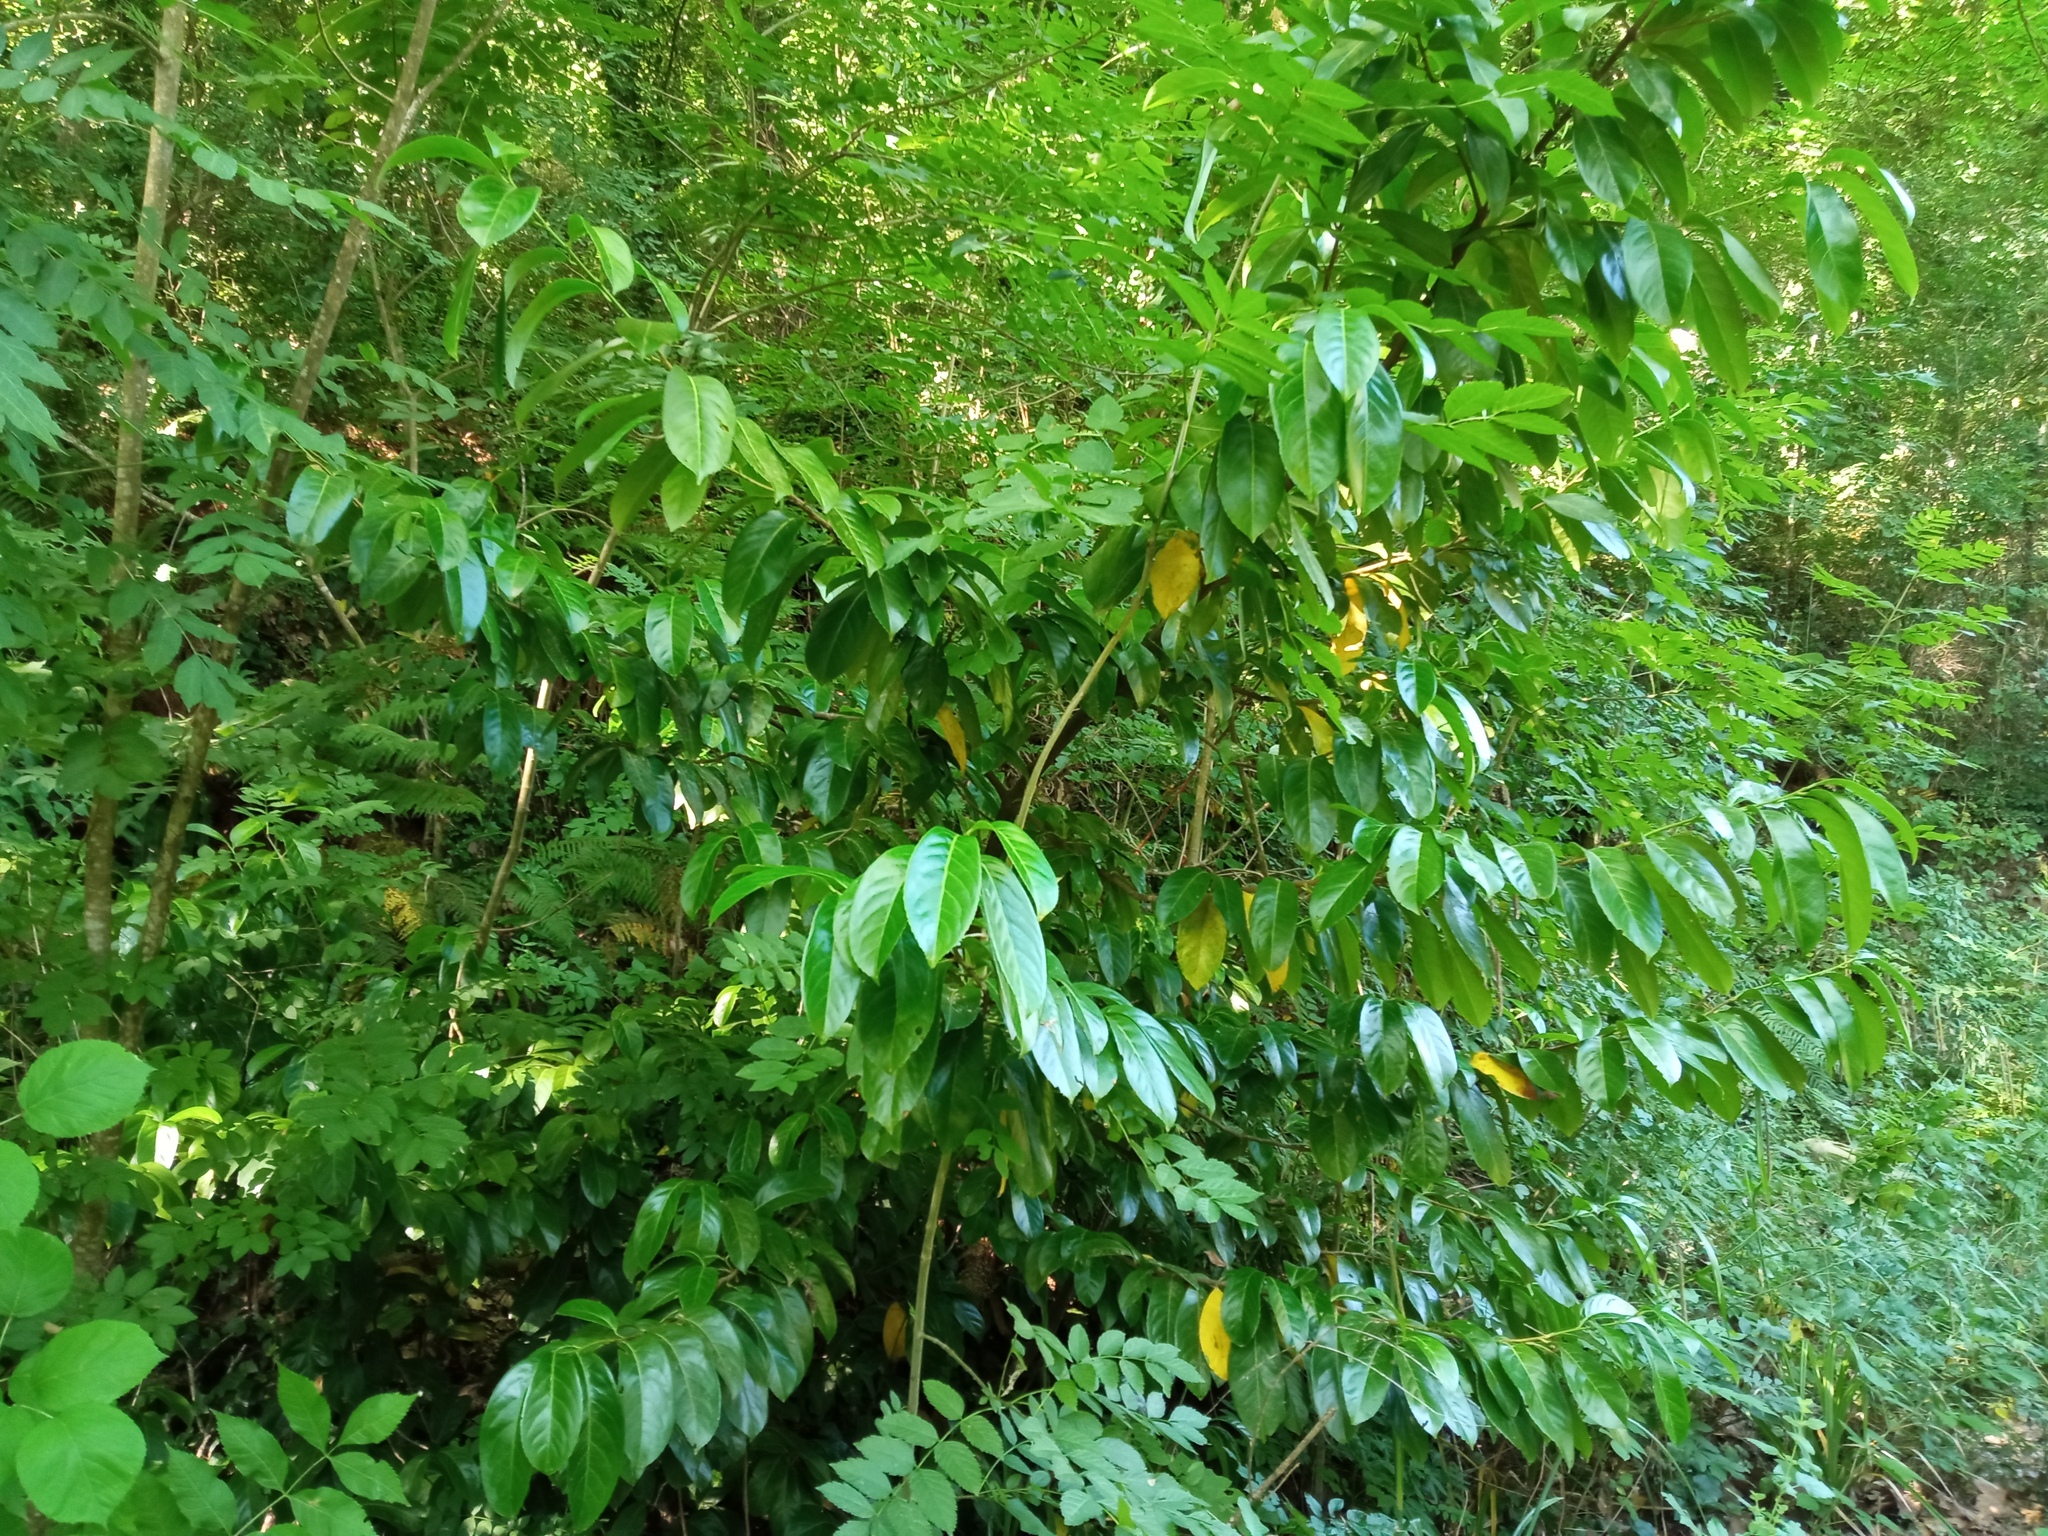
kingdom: Plantae
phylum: Tracheophyta
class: Magnoliopsida
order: Rosales
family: Rosaceae
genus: Prunus
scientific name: Prunus laurocerasus
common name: Cherry laurel
